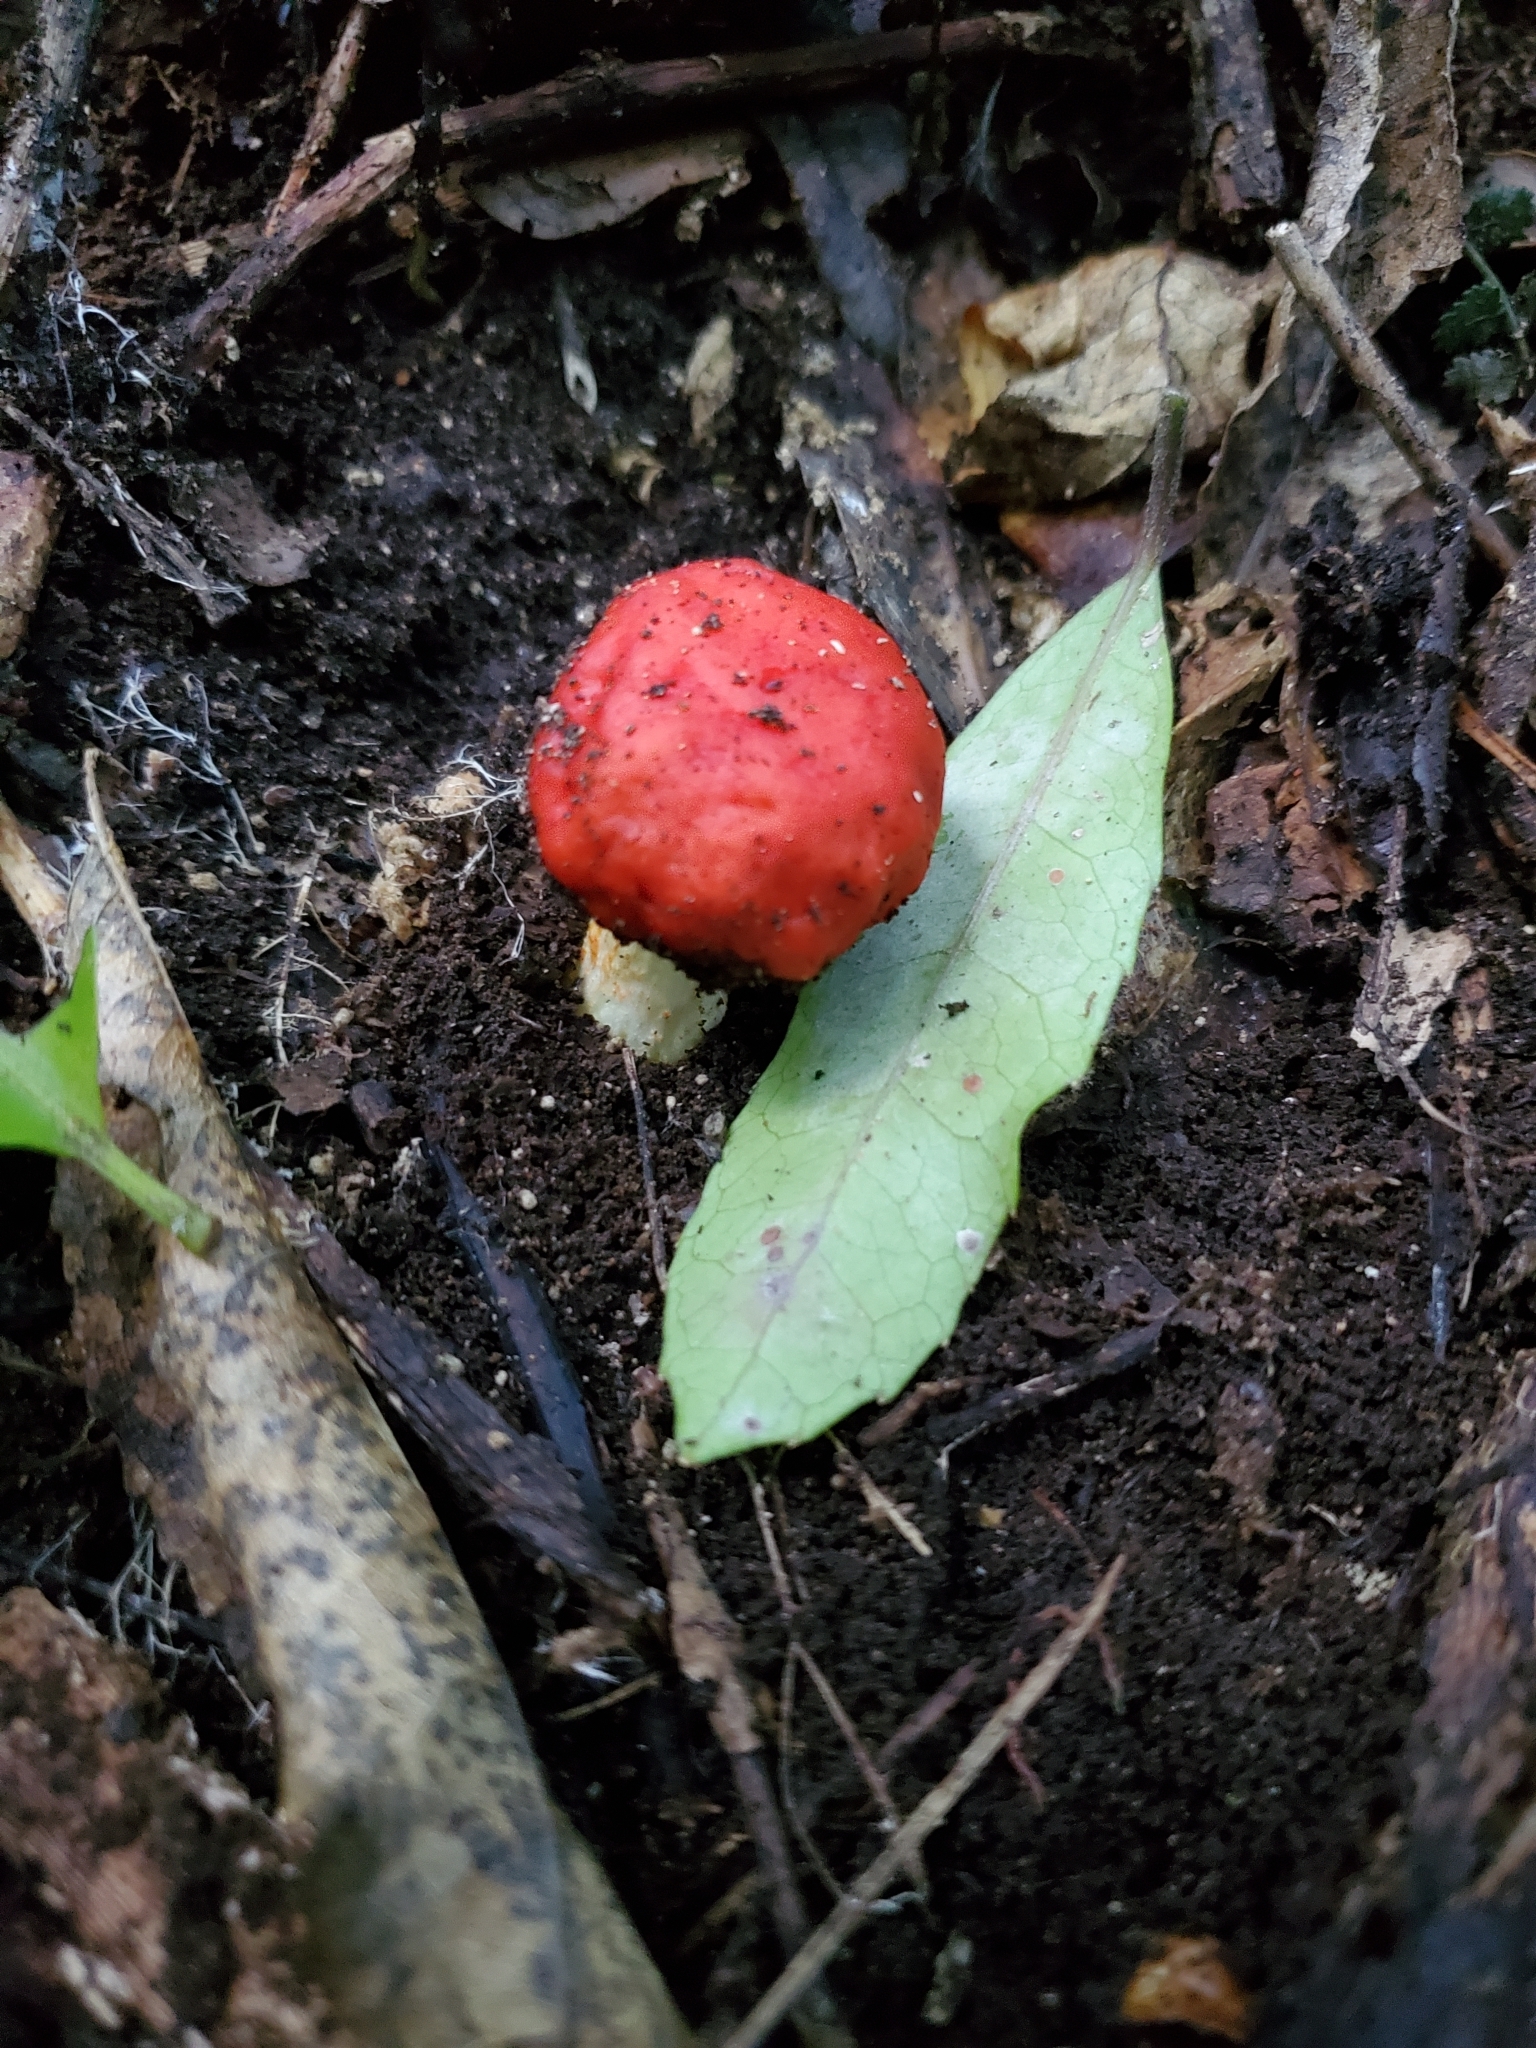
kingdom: Fungi
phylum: Basidiomycota
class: Agaricomycetes
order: Agaricales
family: Strophariaceae
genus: Leratiomyces
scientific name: Leratiomyces erythrocephalus
